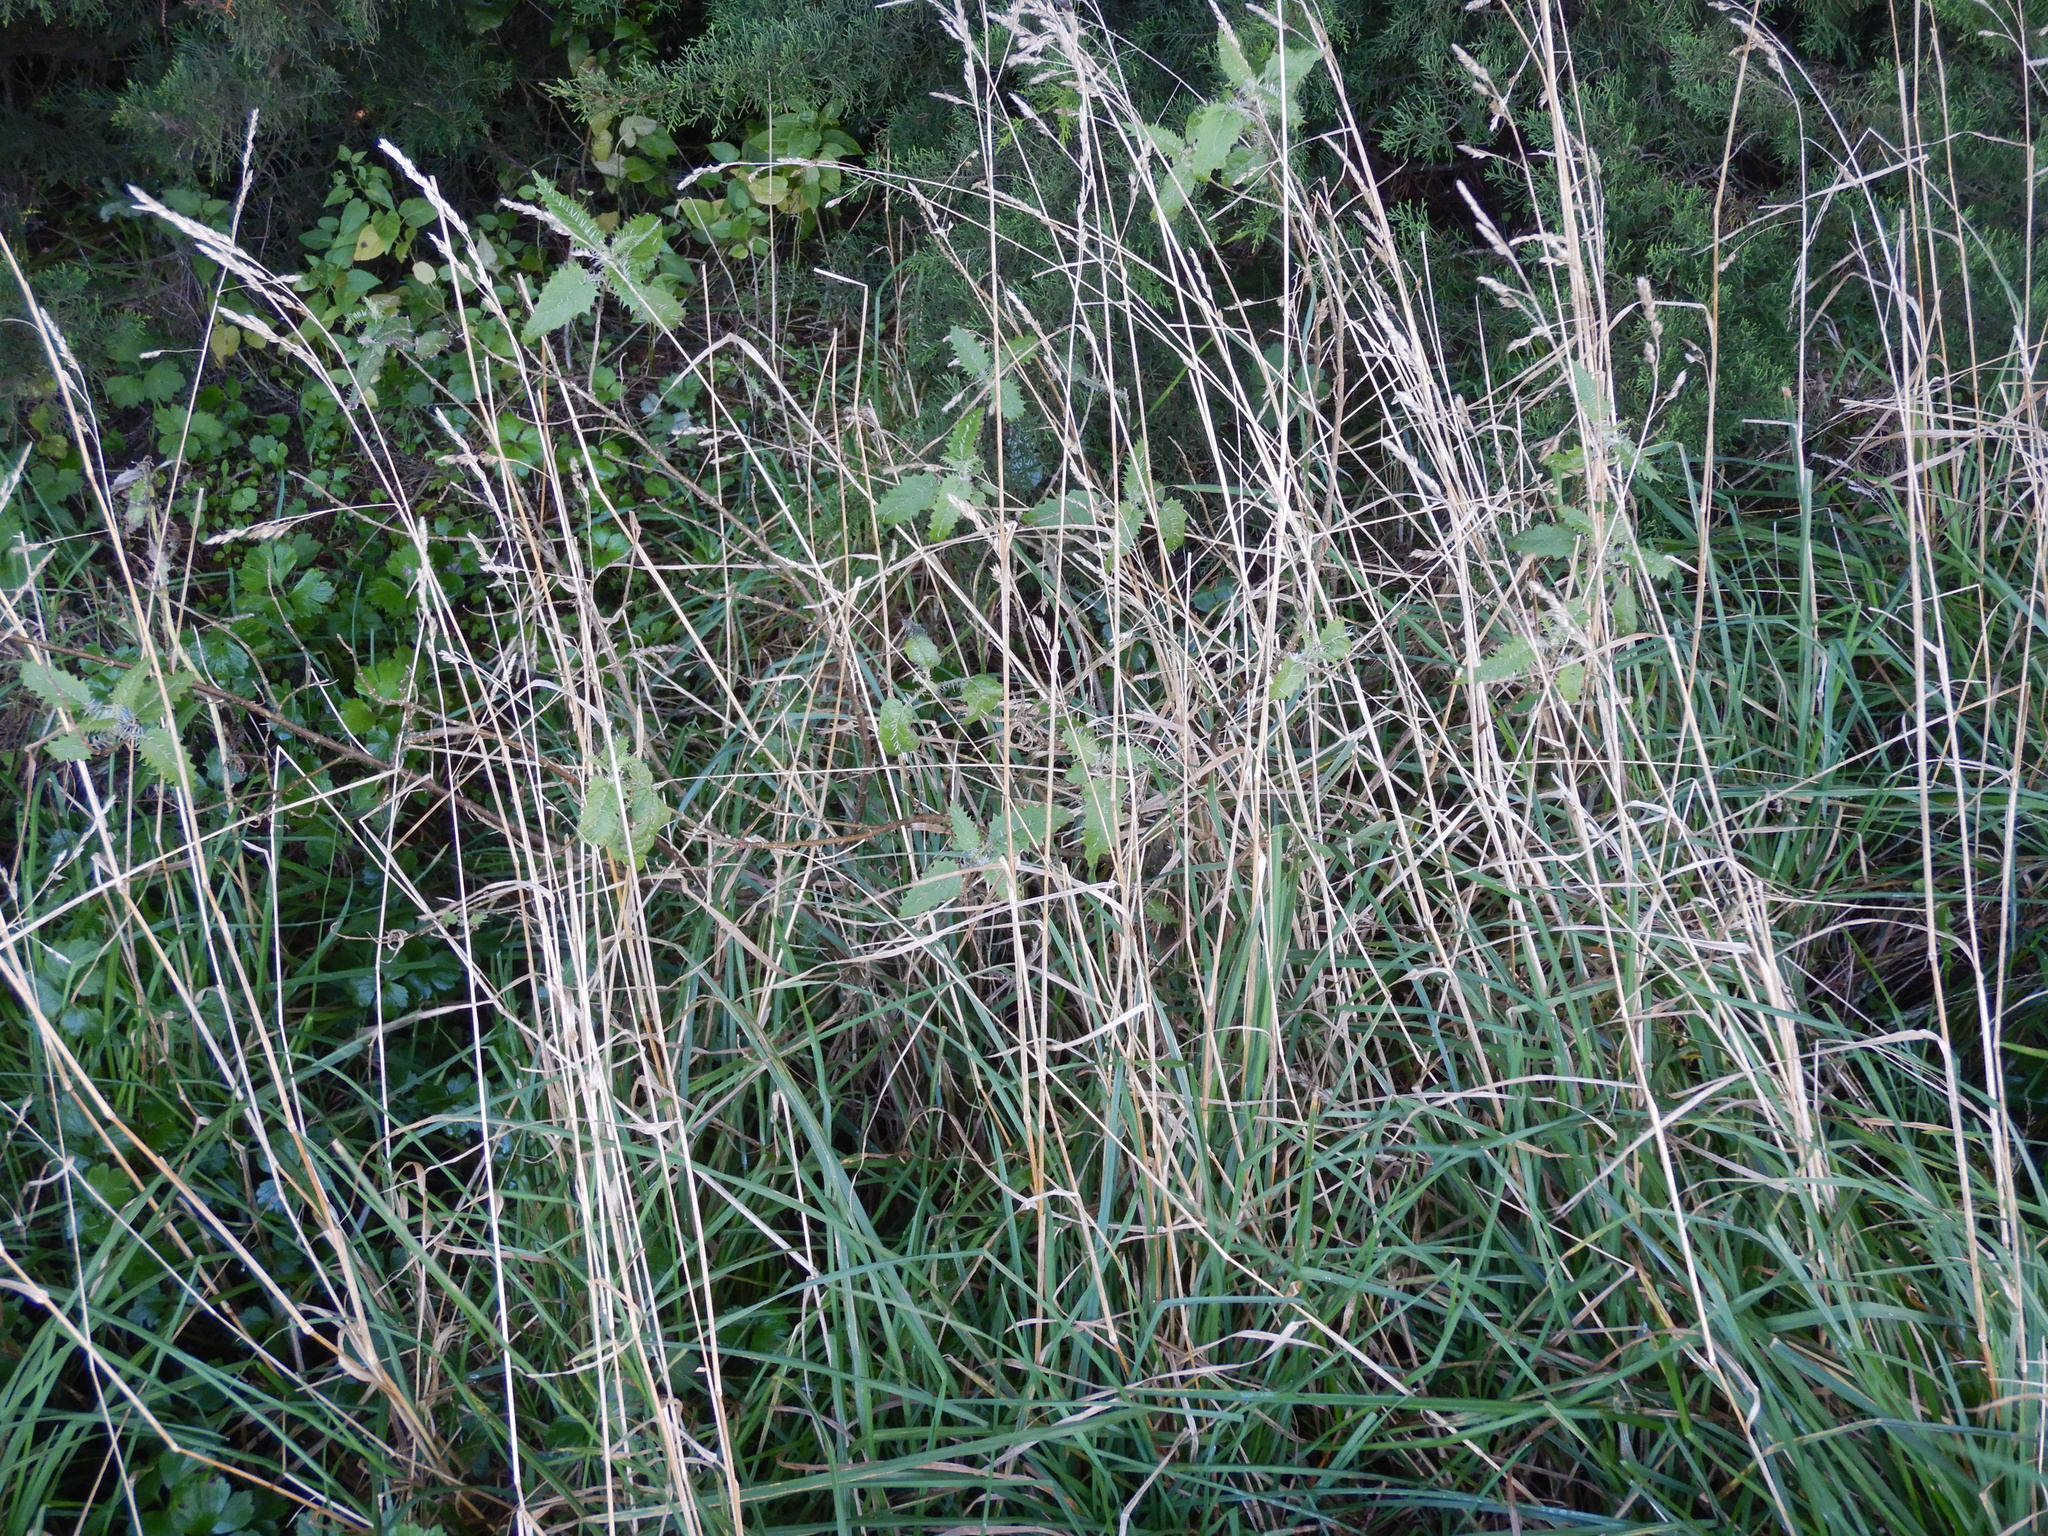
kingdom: Plantae
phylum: Tracheophyta
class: Magnoliopsida
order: Rosales
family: Urticaceae
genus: Urtica
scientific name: Urtica ferox
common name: Tree nettle
